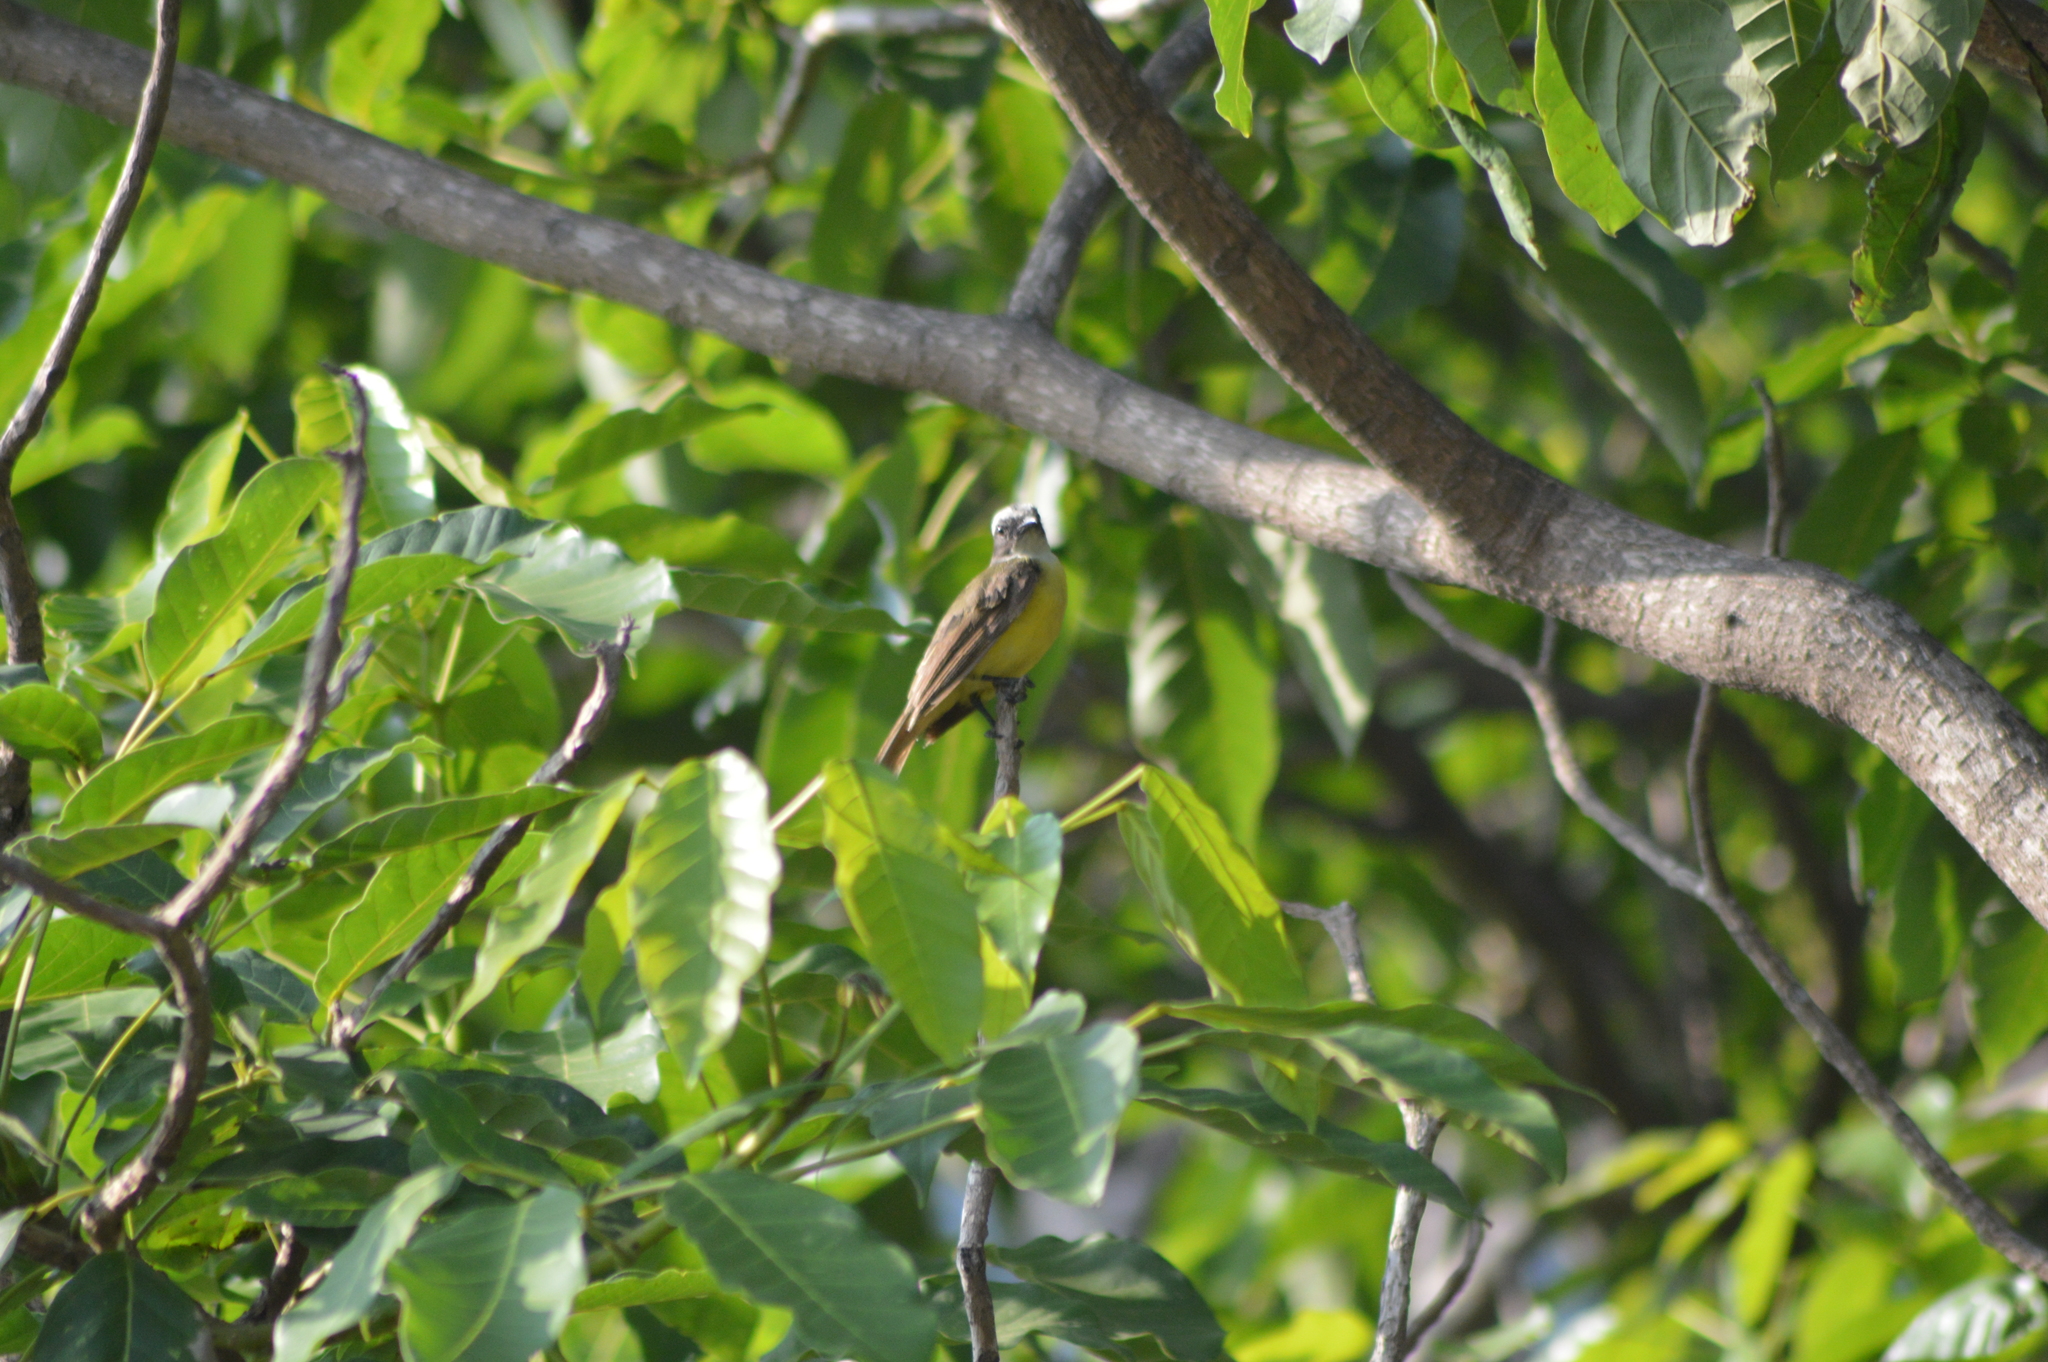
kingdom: Animalia
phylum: Chordata
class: Aves
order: Passeriformes
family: Tyrannidae
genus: Myiozetetes
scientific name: Myiozetetes similis
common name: Social flycatcher
